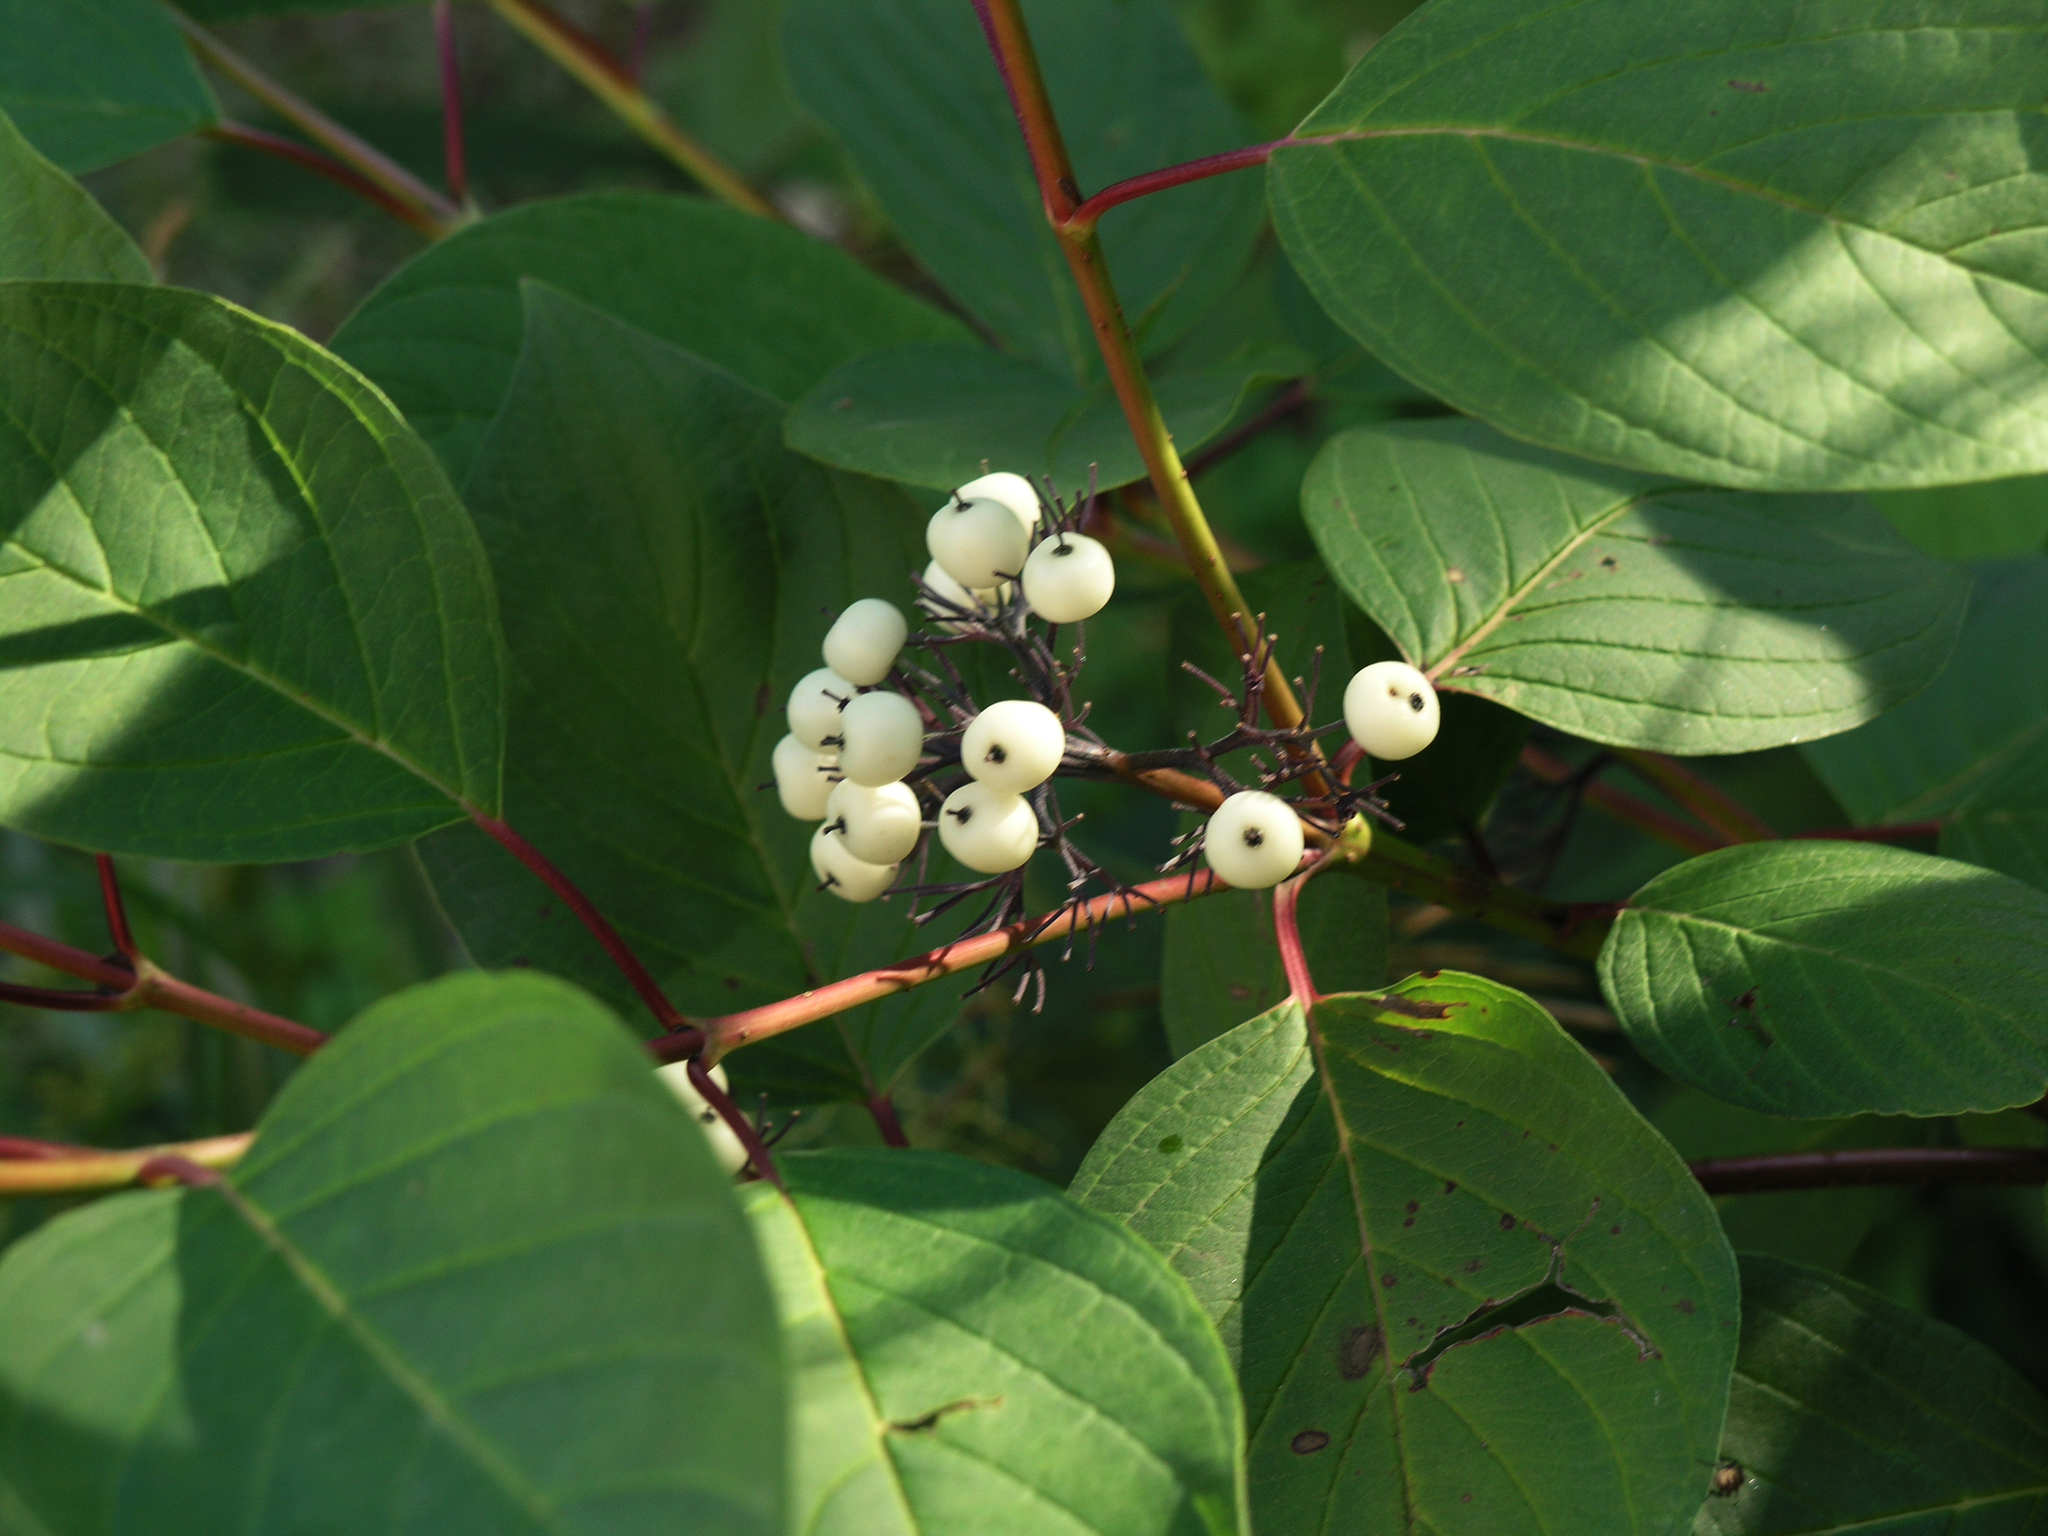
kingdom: Plantae
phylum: Tracheophyta
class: Magnoliopsida
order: Cornales
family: Cornaceae
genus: Cornus
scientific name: Cornus alba
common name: White dogwood
